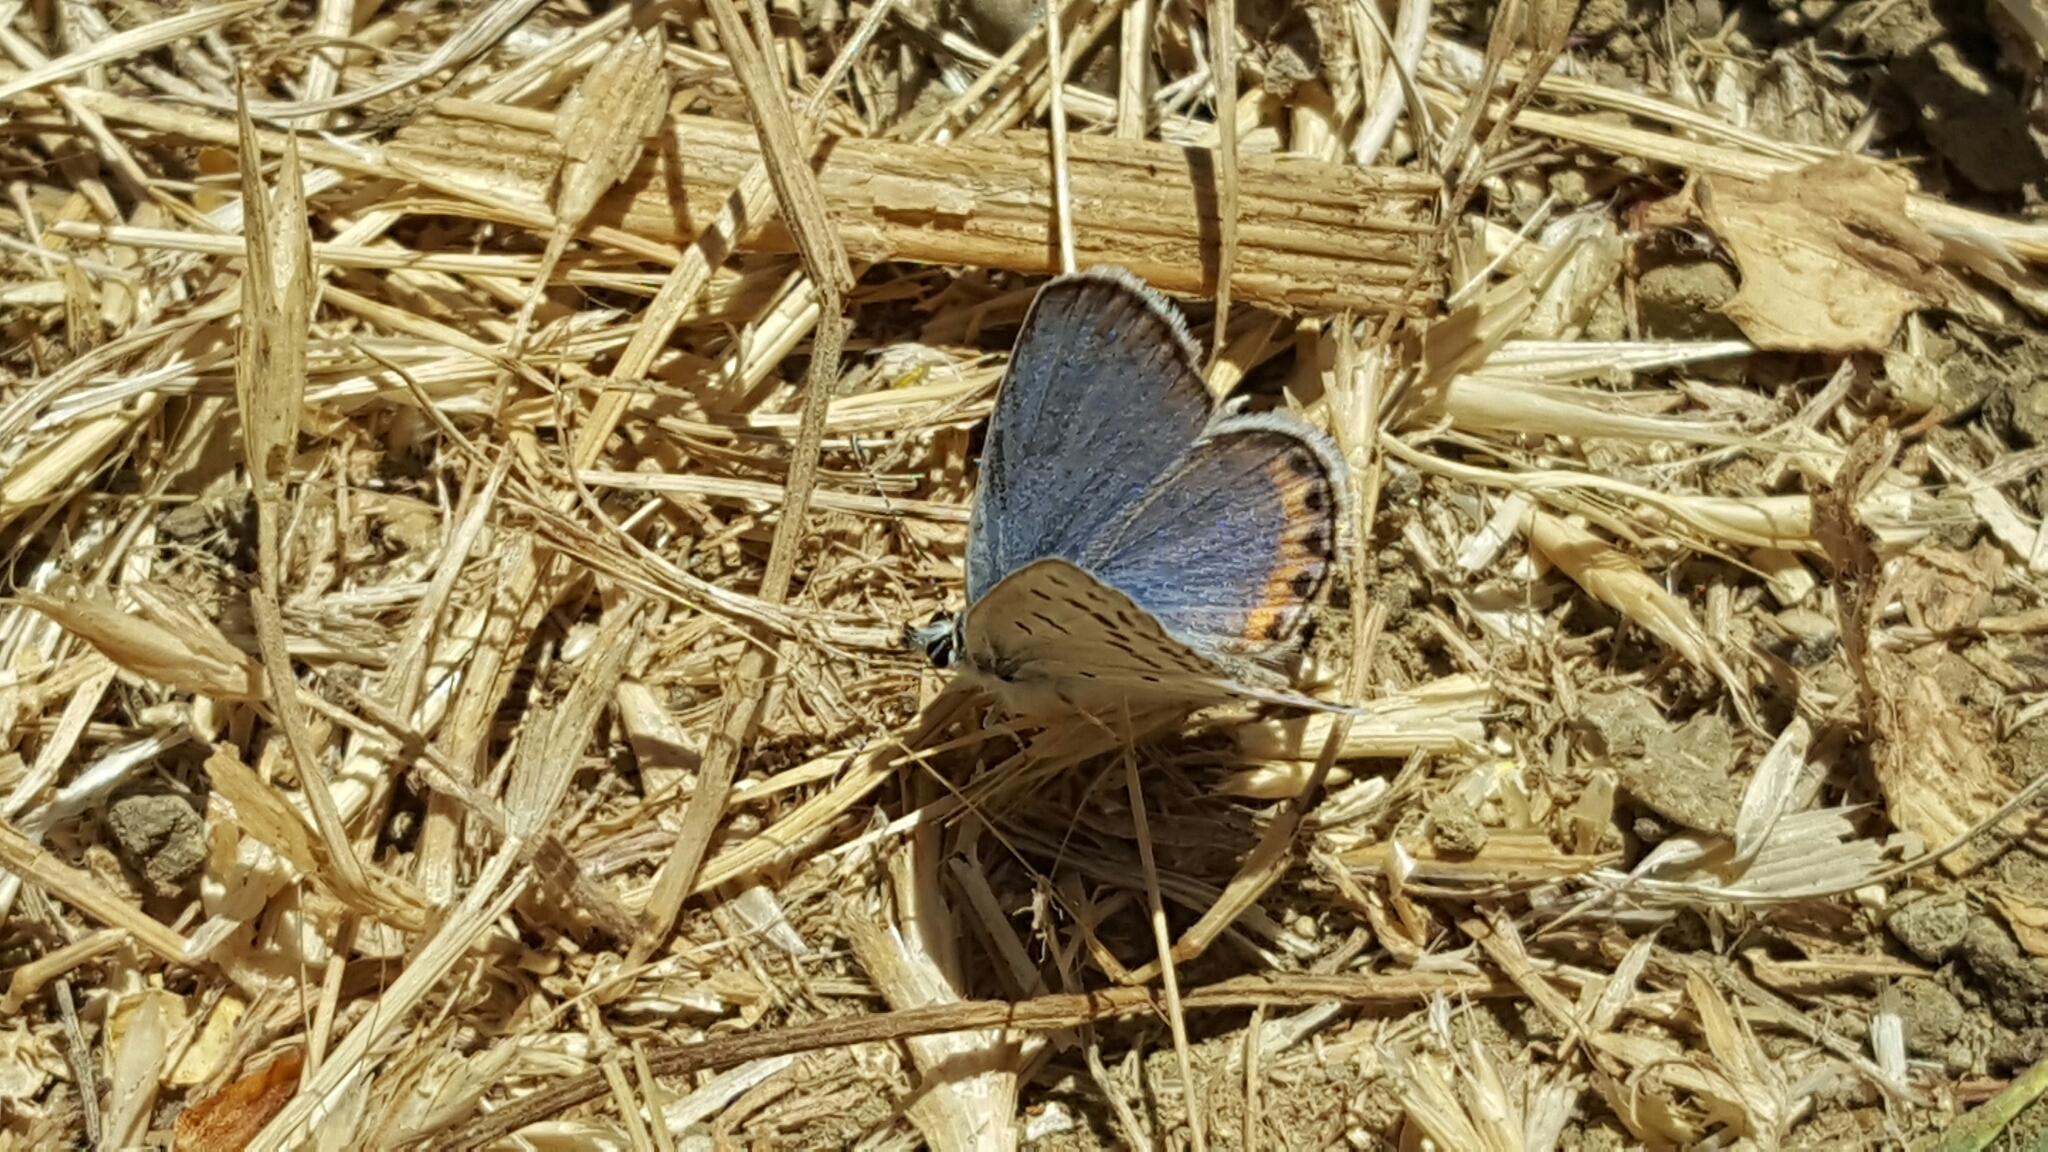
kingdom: Animalia
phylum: Arthropoda
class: Insecta
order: Lepidoptera
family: Lycaenidae
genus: Icaricia
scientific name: Icaricia acmon
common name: Acmon blue
